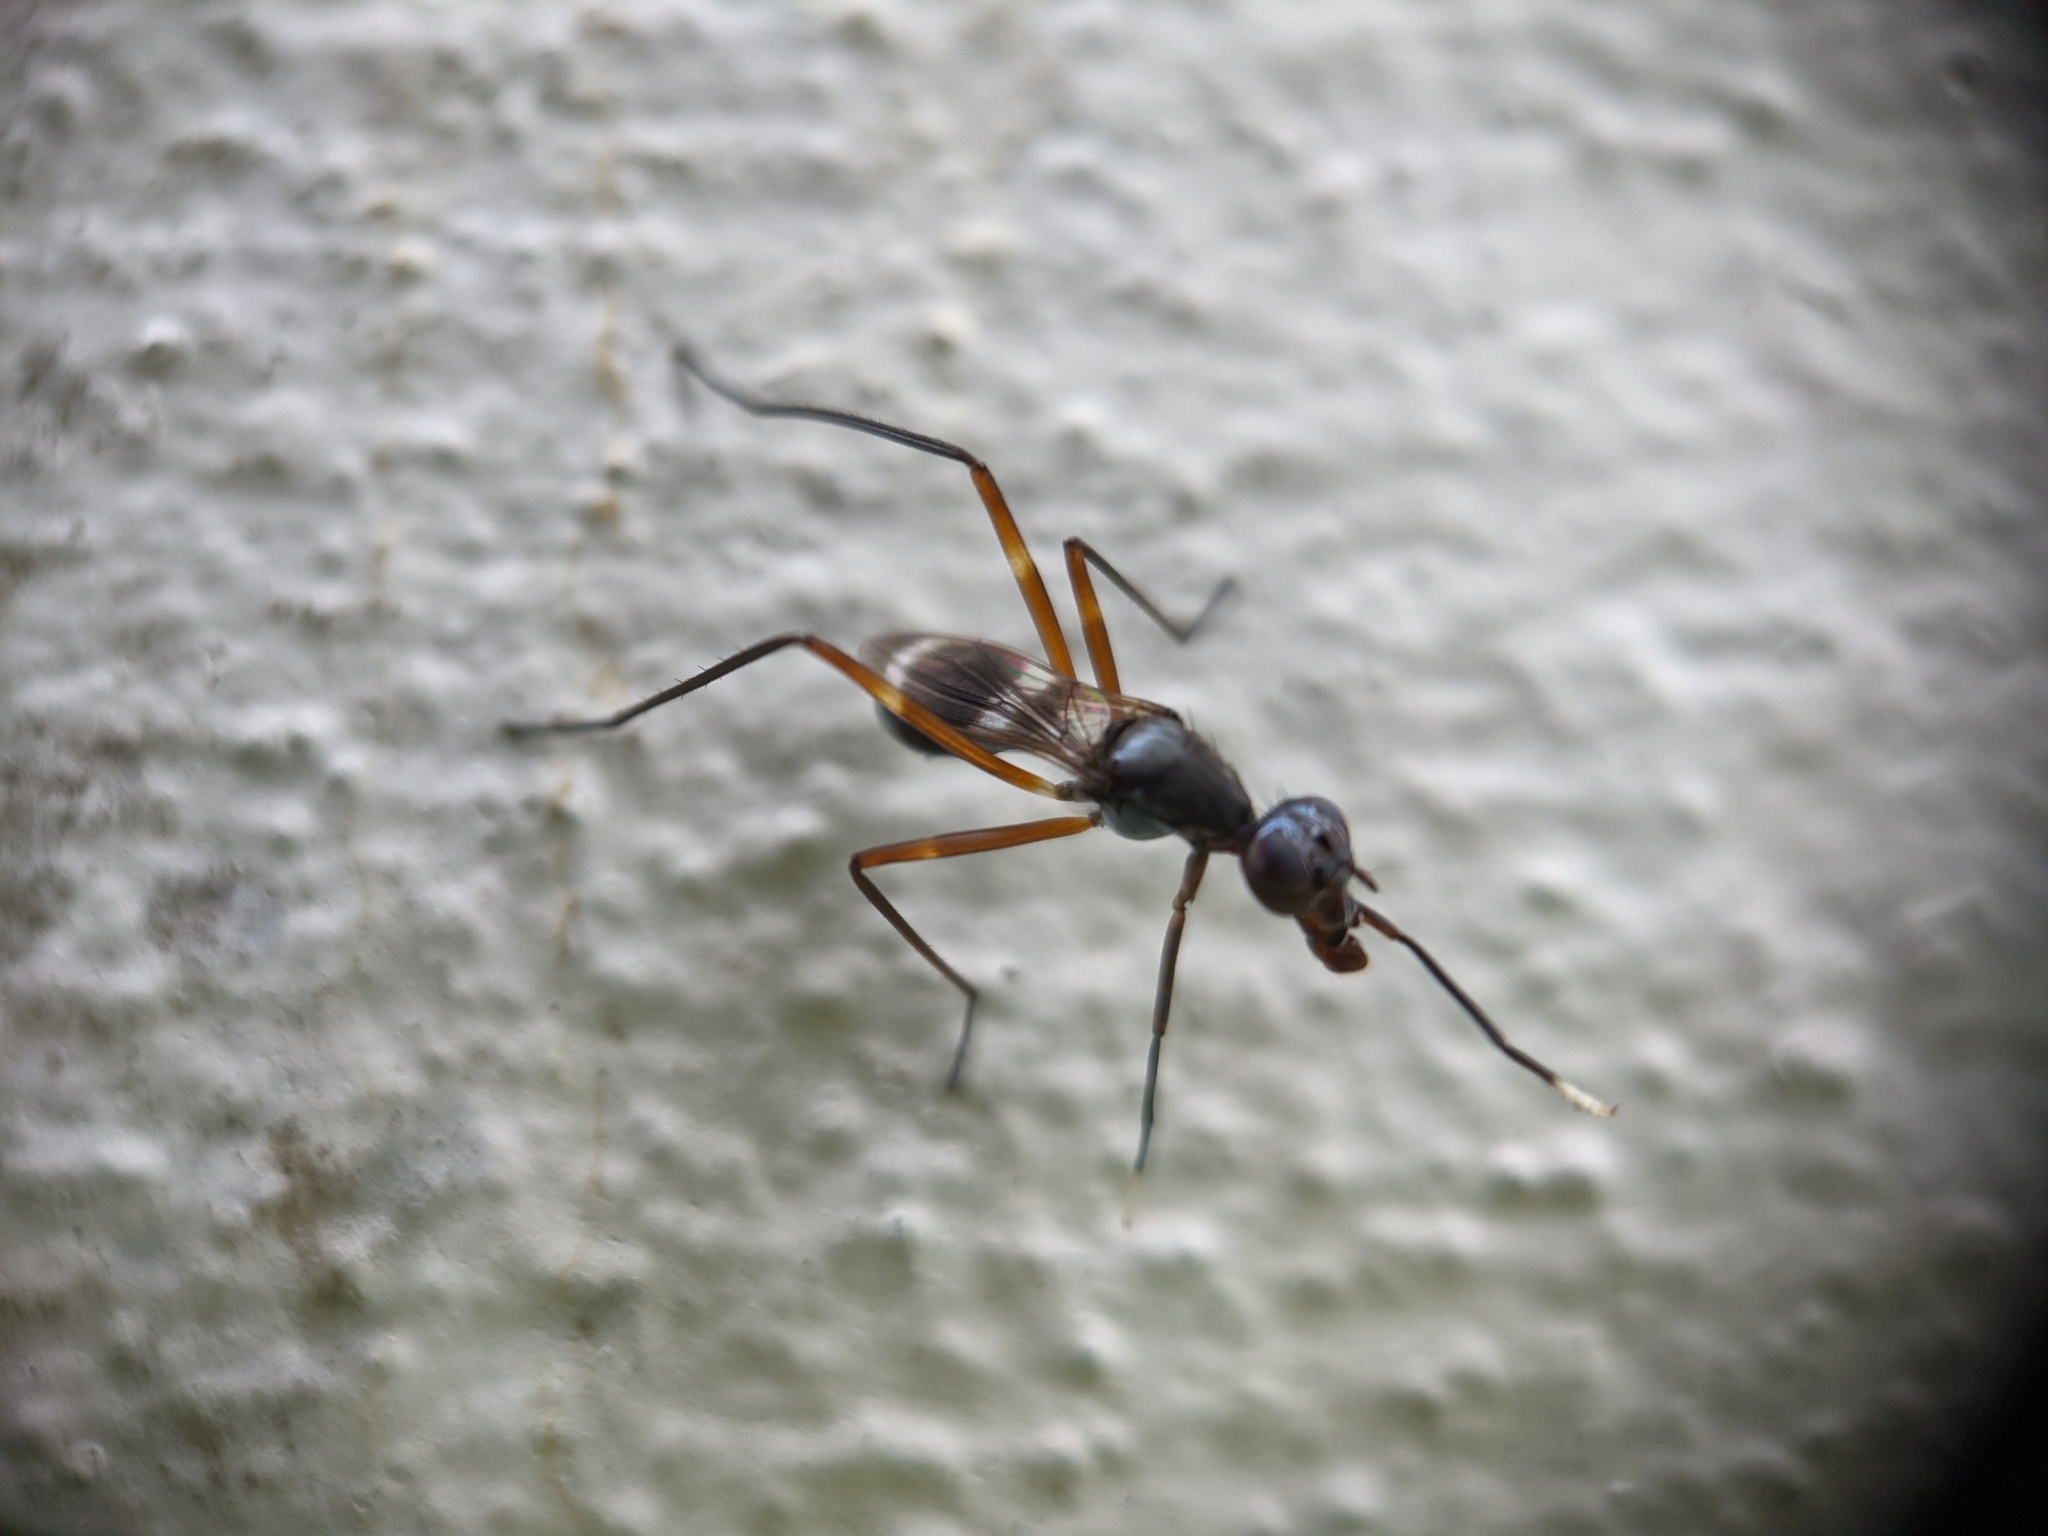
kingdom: Animalia
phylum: Arthropoda
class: Insecta
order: Diptera
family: Micropezidae
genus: Taeniaptera
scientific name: Taeniaptera trivittata
